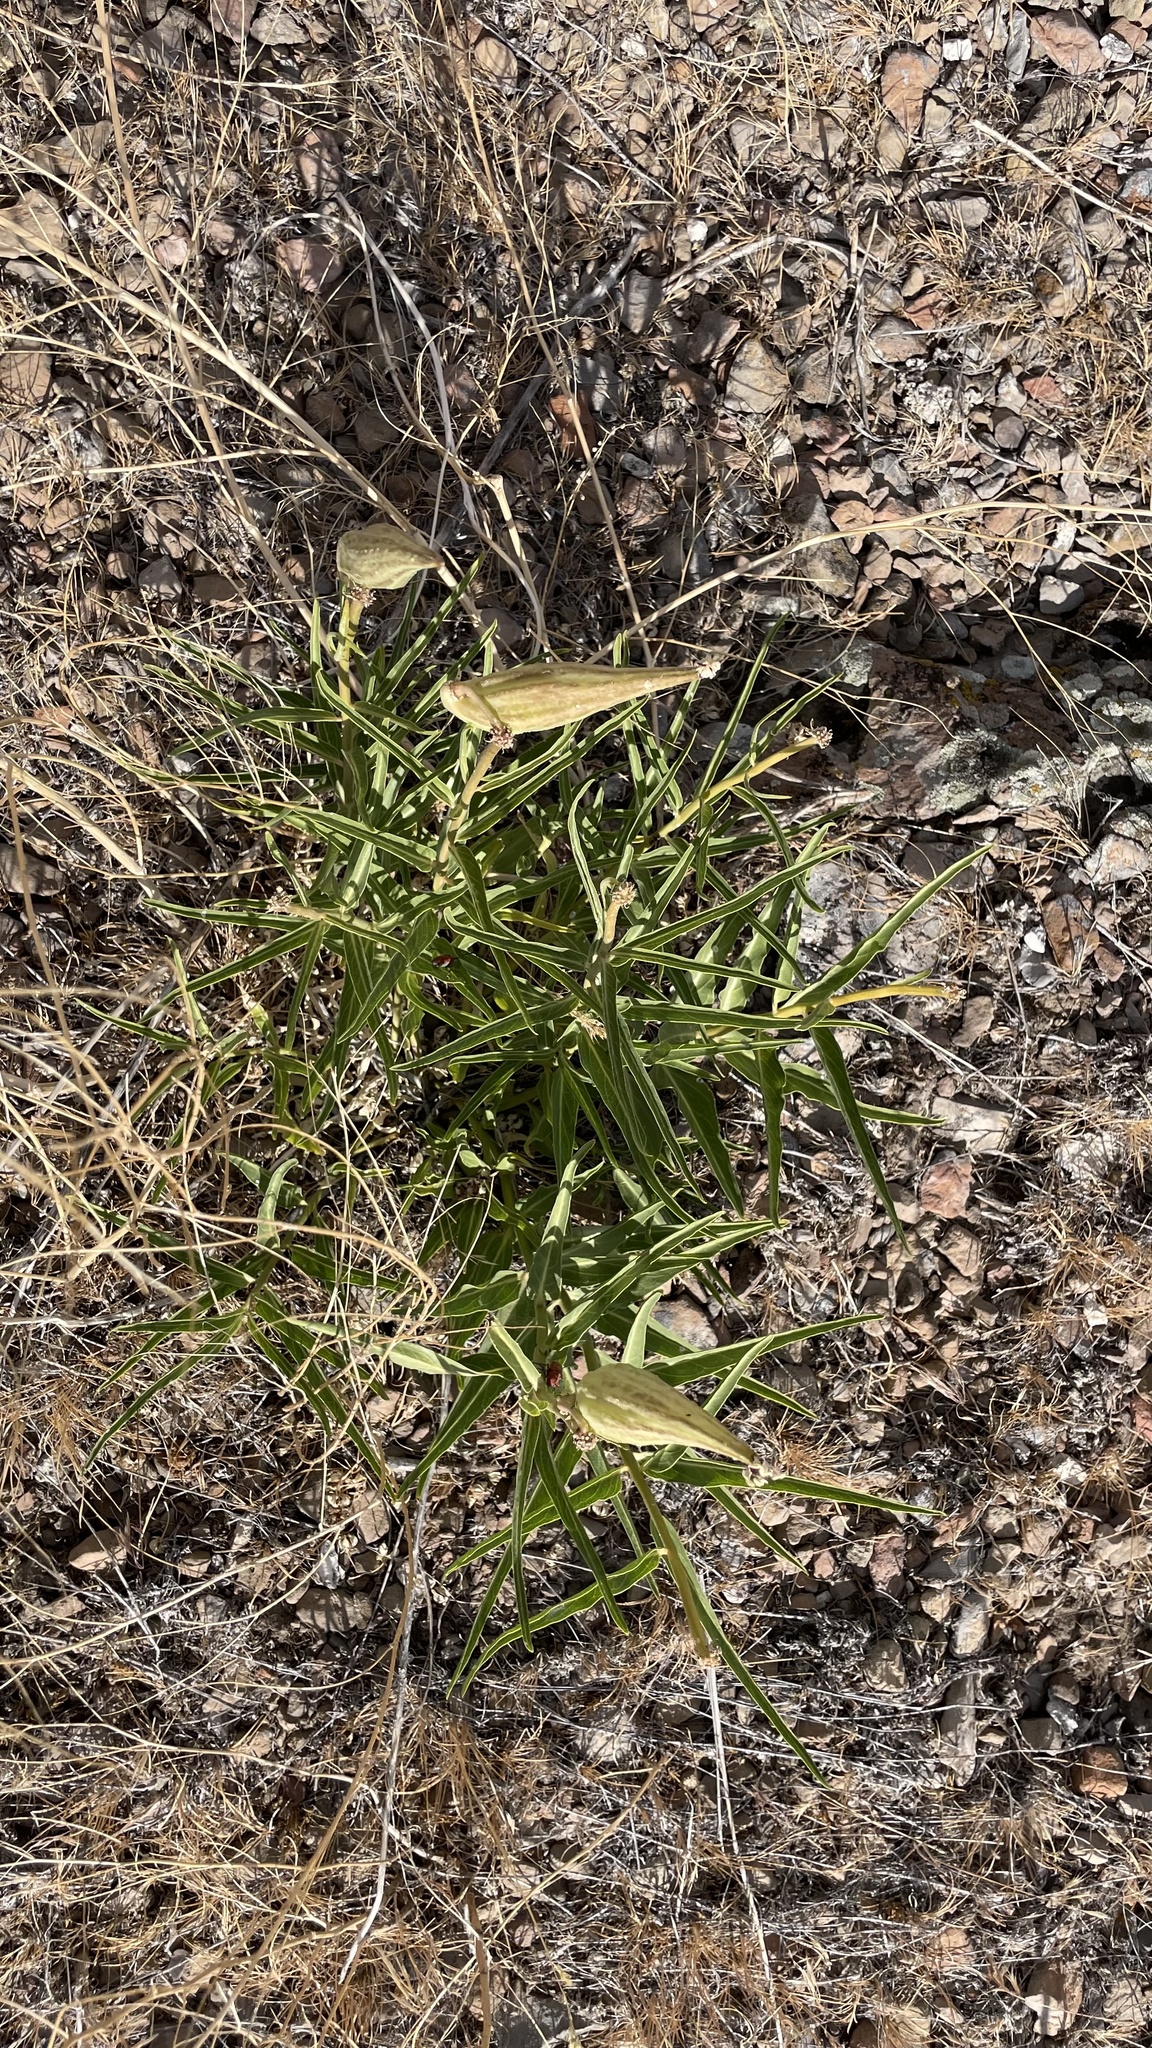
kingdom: Plantae
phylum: Tracheophyta
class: Magnoliopsida
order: Gentianales
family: Apocynaceae
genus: Asclepias
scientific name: Asclepias asperula
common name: Antelope horns
